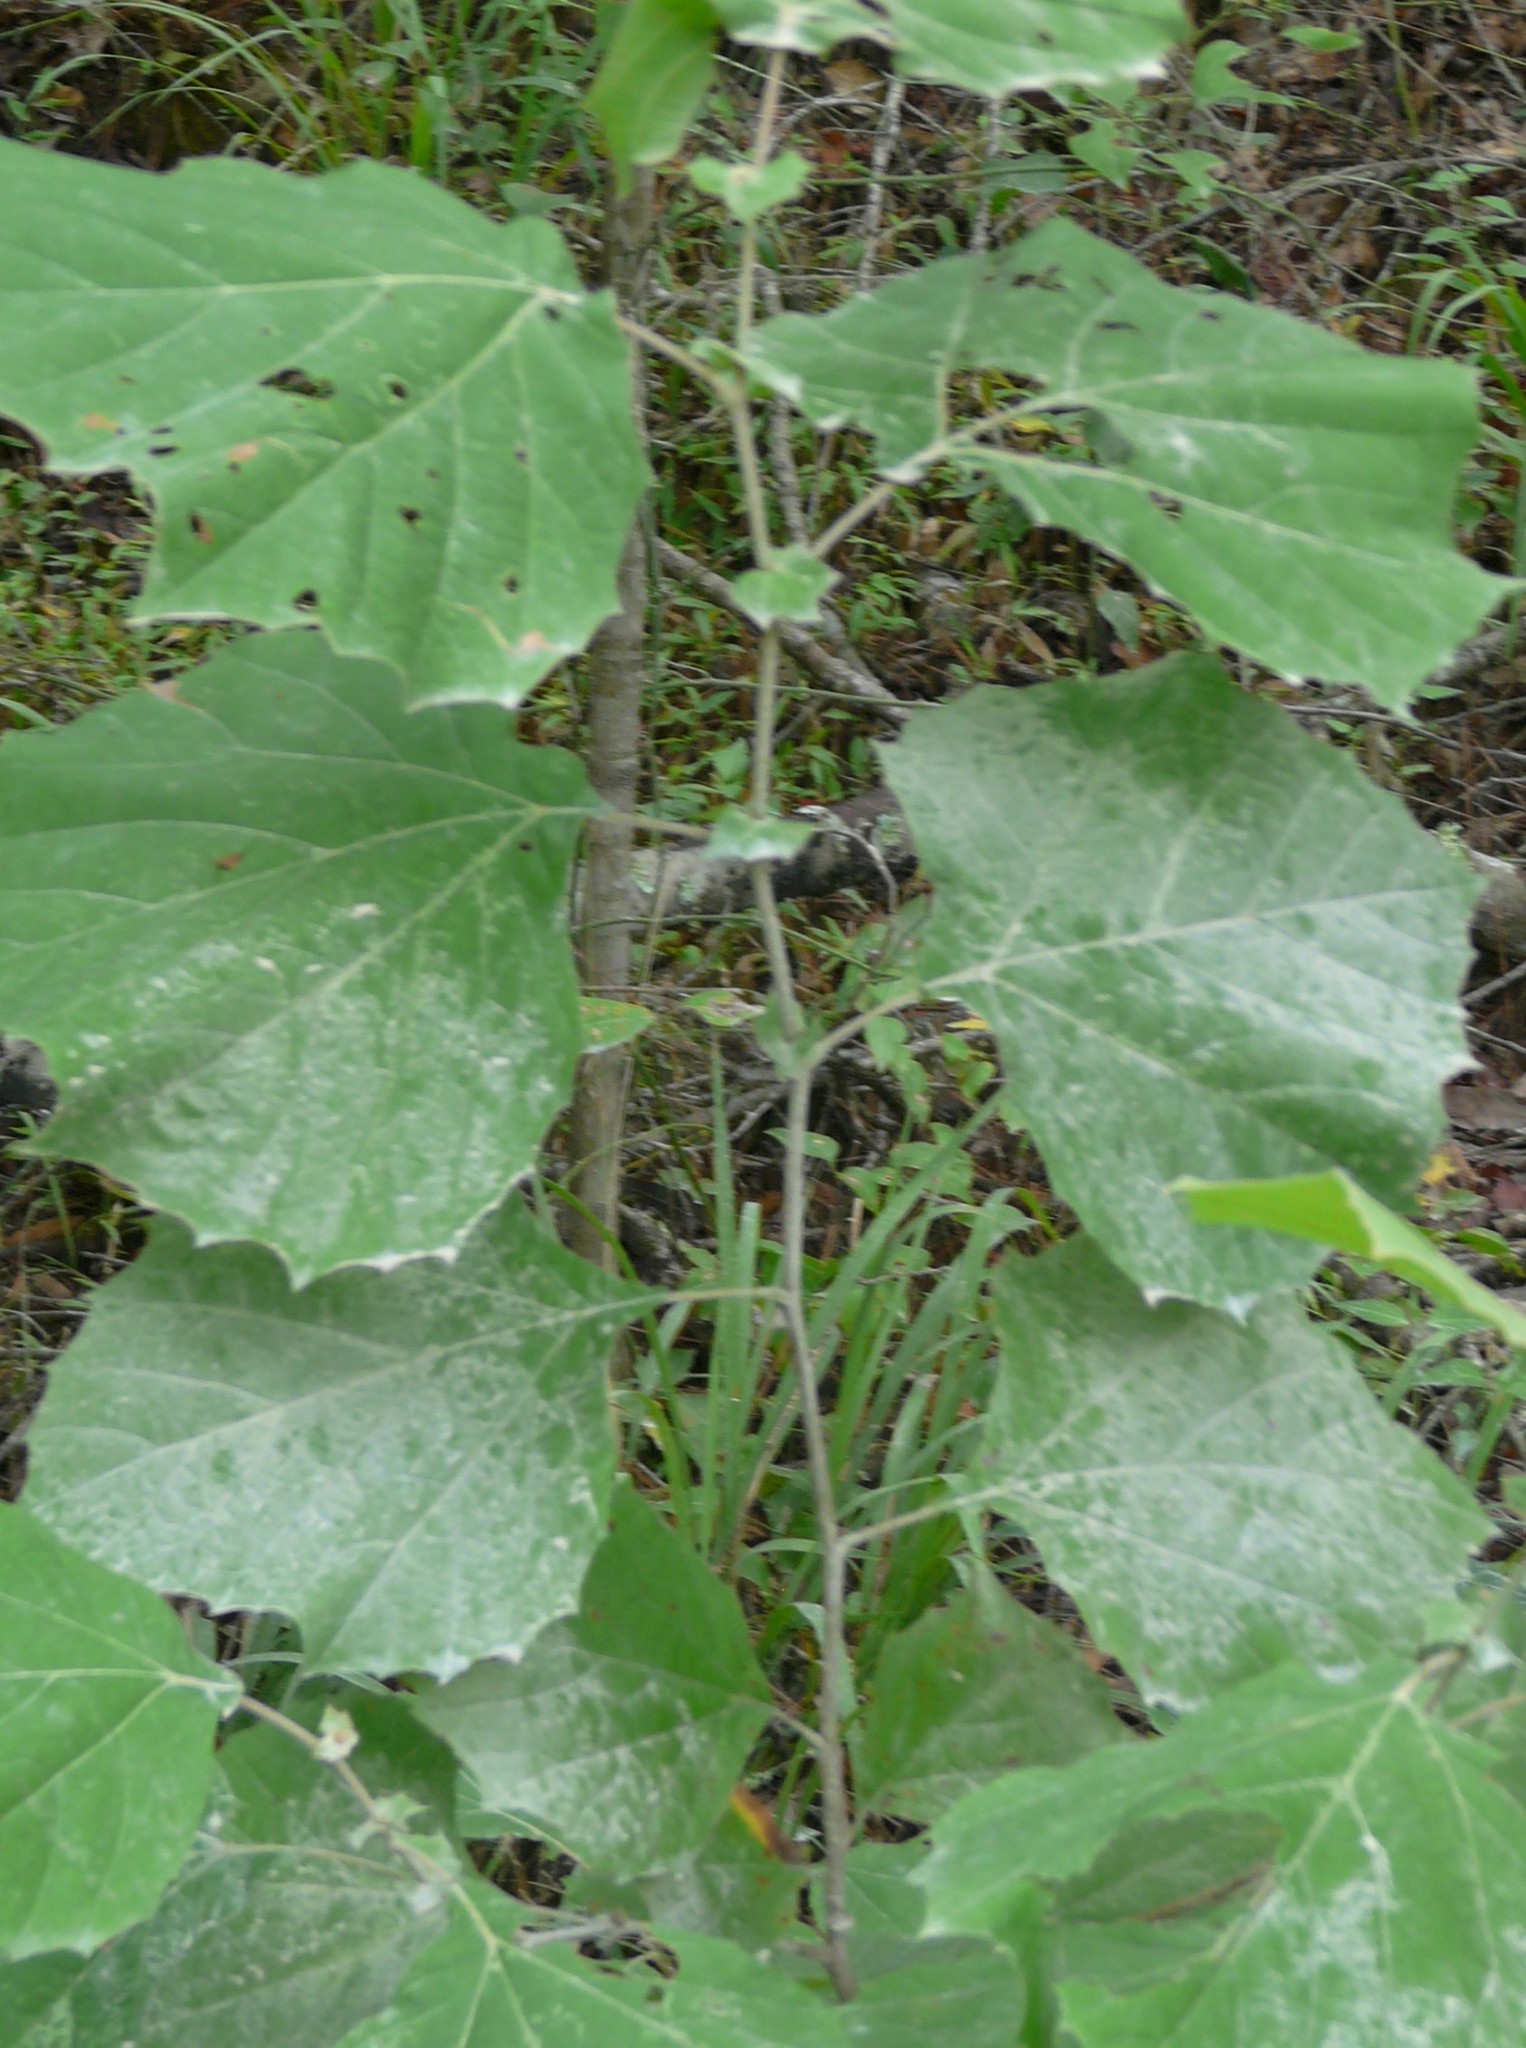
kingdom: Plantae
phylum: Tracheophyta
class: Magnoliopsida
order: Proteales
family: Platanaceae
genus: Platanus
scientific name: Platanus occidentalis
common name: American sycamore
